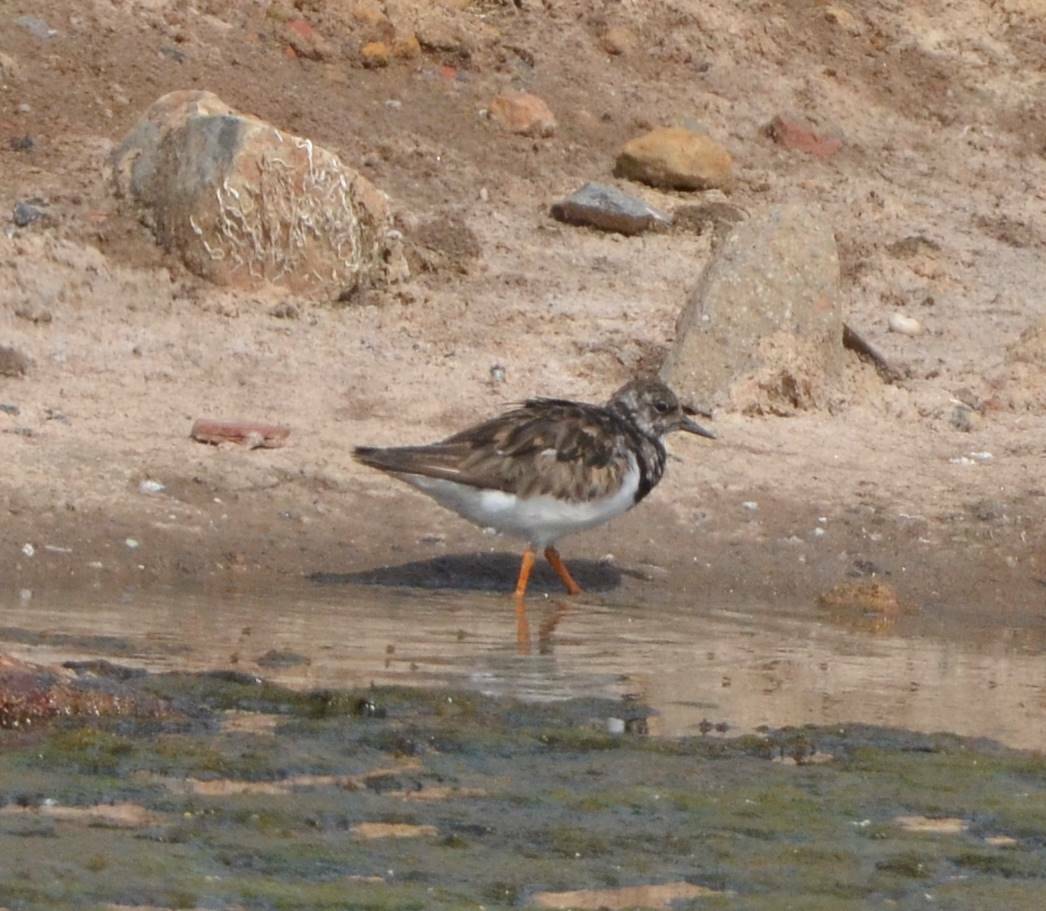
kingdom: Animalia
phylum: Chordata
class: Aves
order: Charadriiformes
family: Scolopacidae
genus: Arenaria
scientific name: Arenaria interpres
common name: Ruddy turnstone
